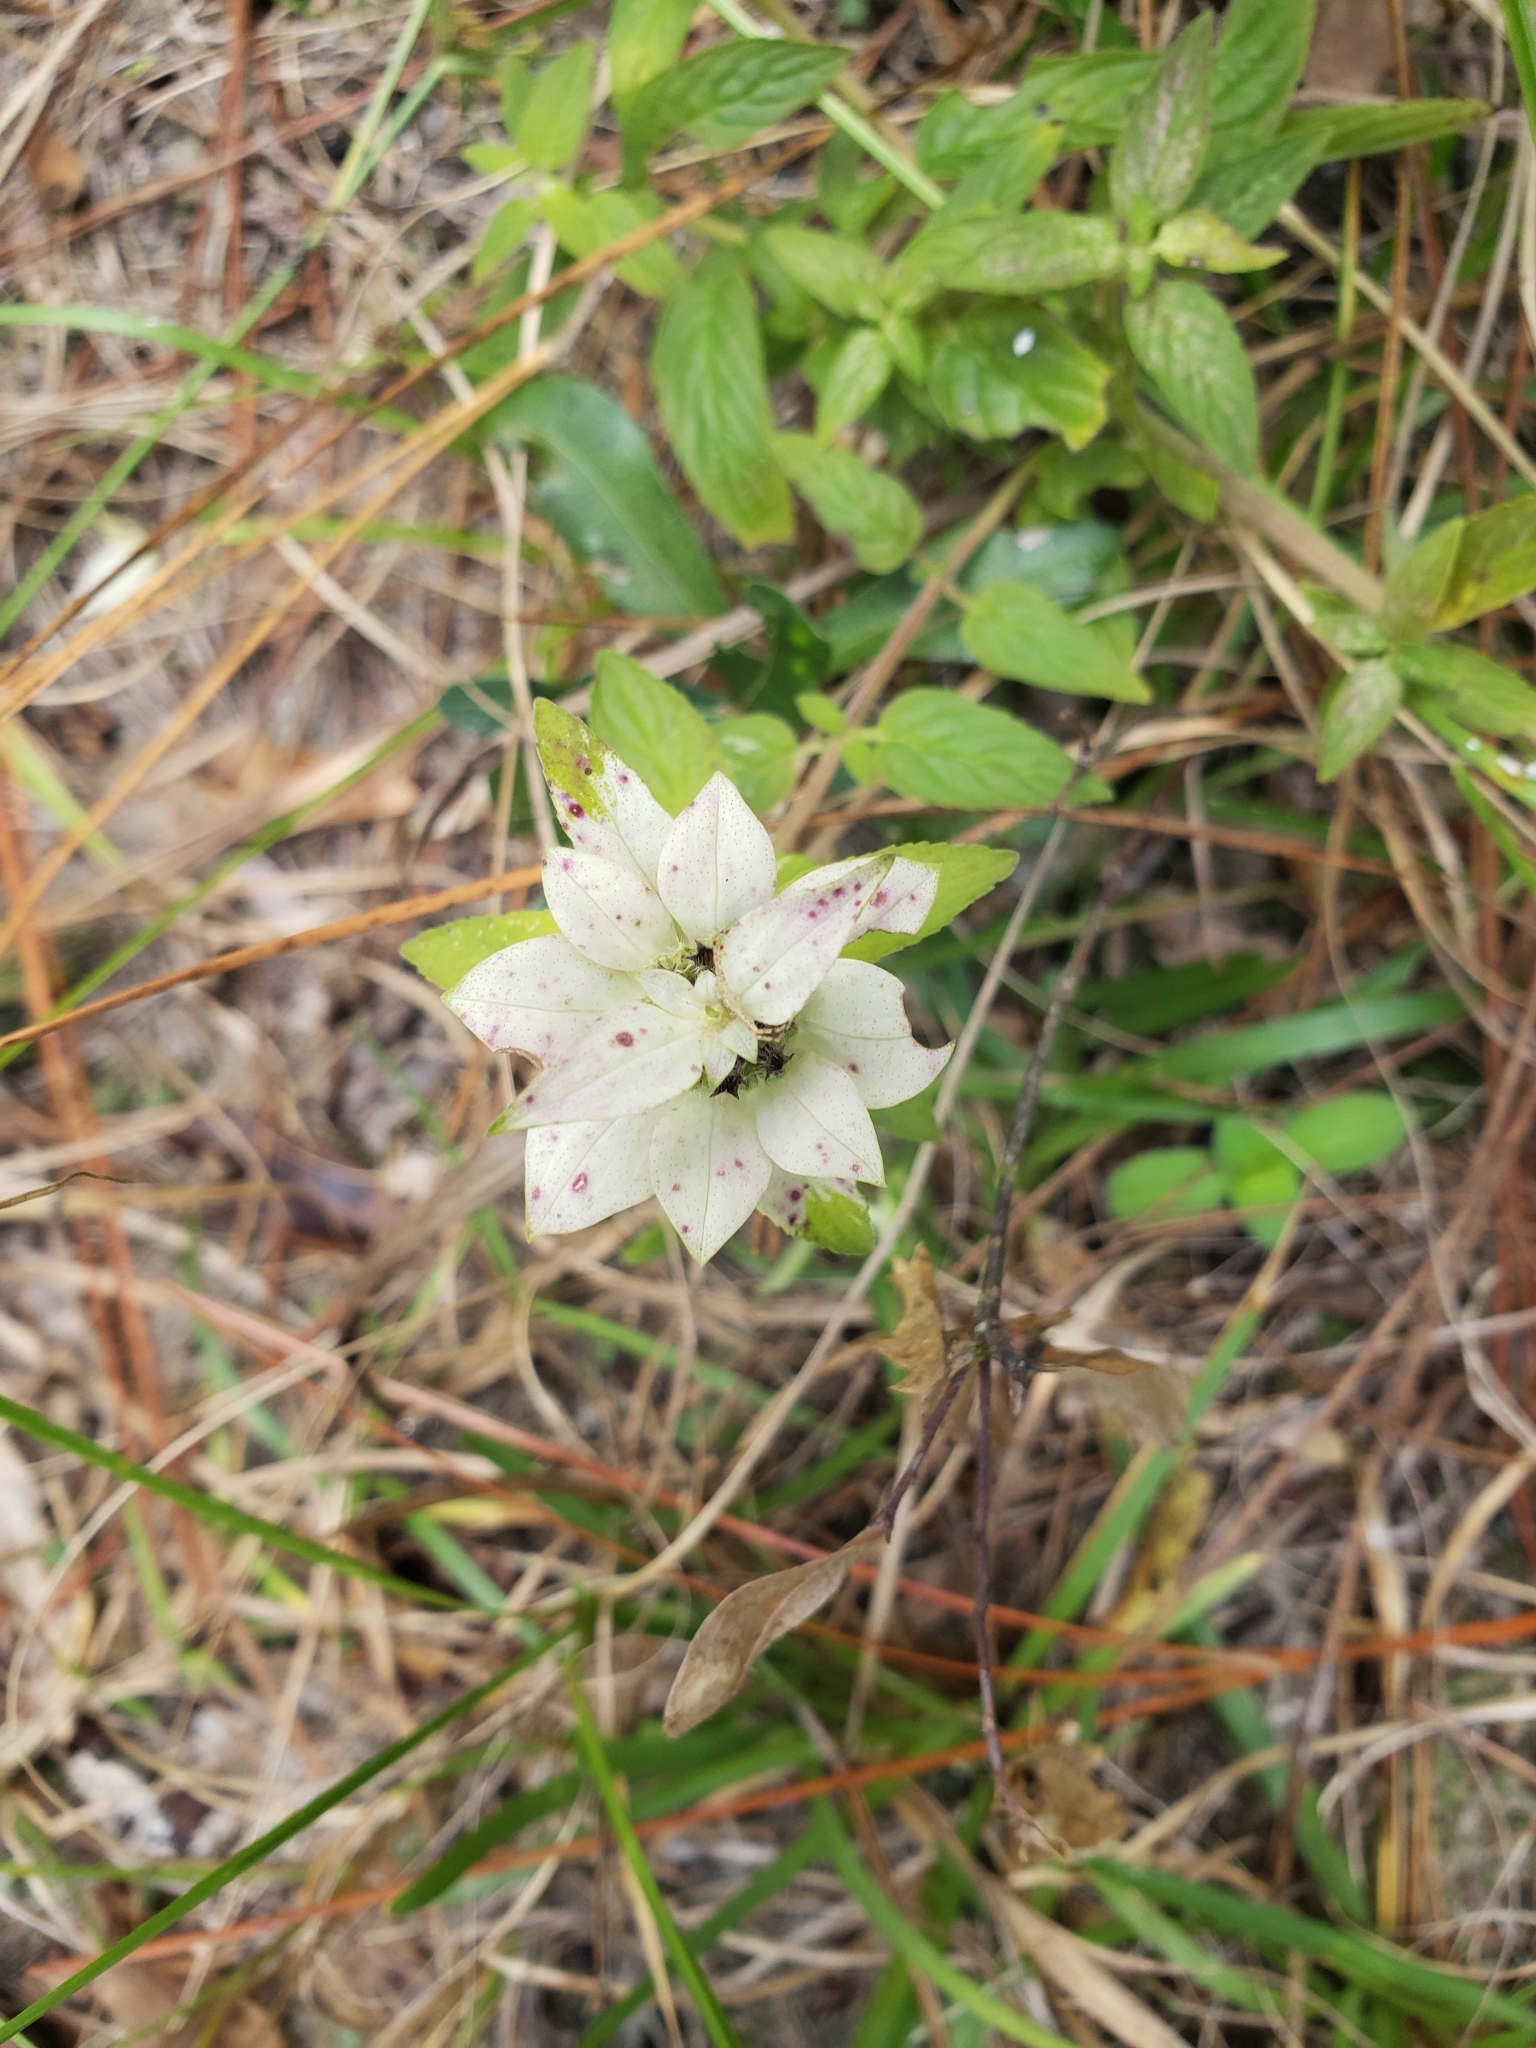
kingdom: Plantae
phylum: Tracheophyta
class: Magnoliopsida
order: Lamiales
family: Lamiaceae
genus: Monarda
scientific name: Monarda punctata
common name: Dotted monarda
